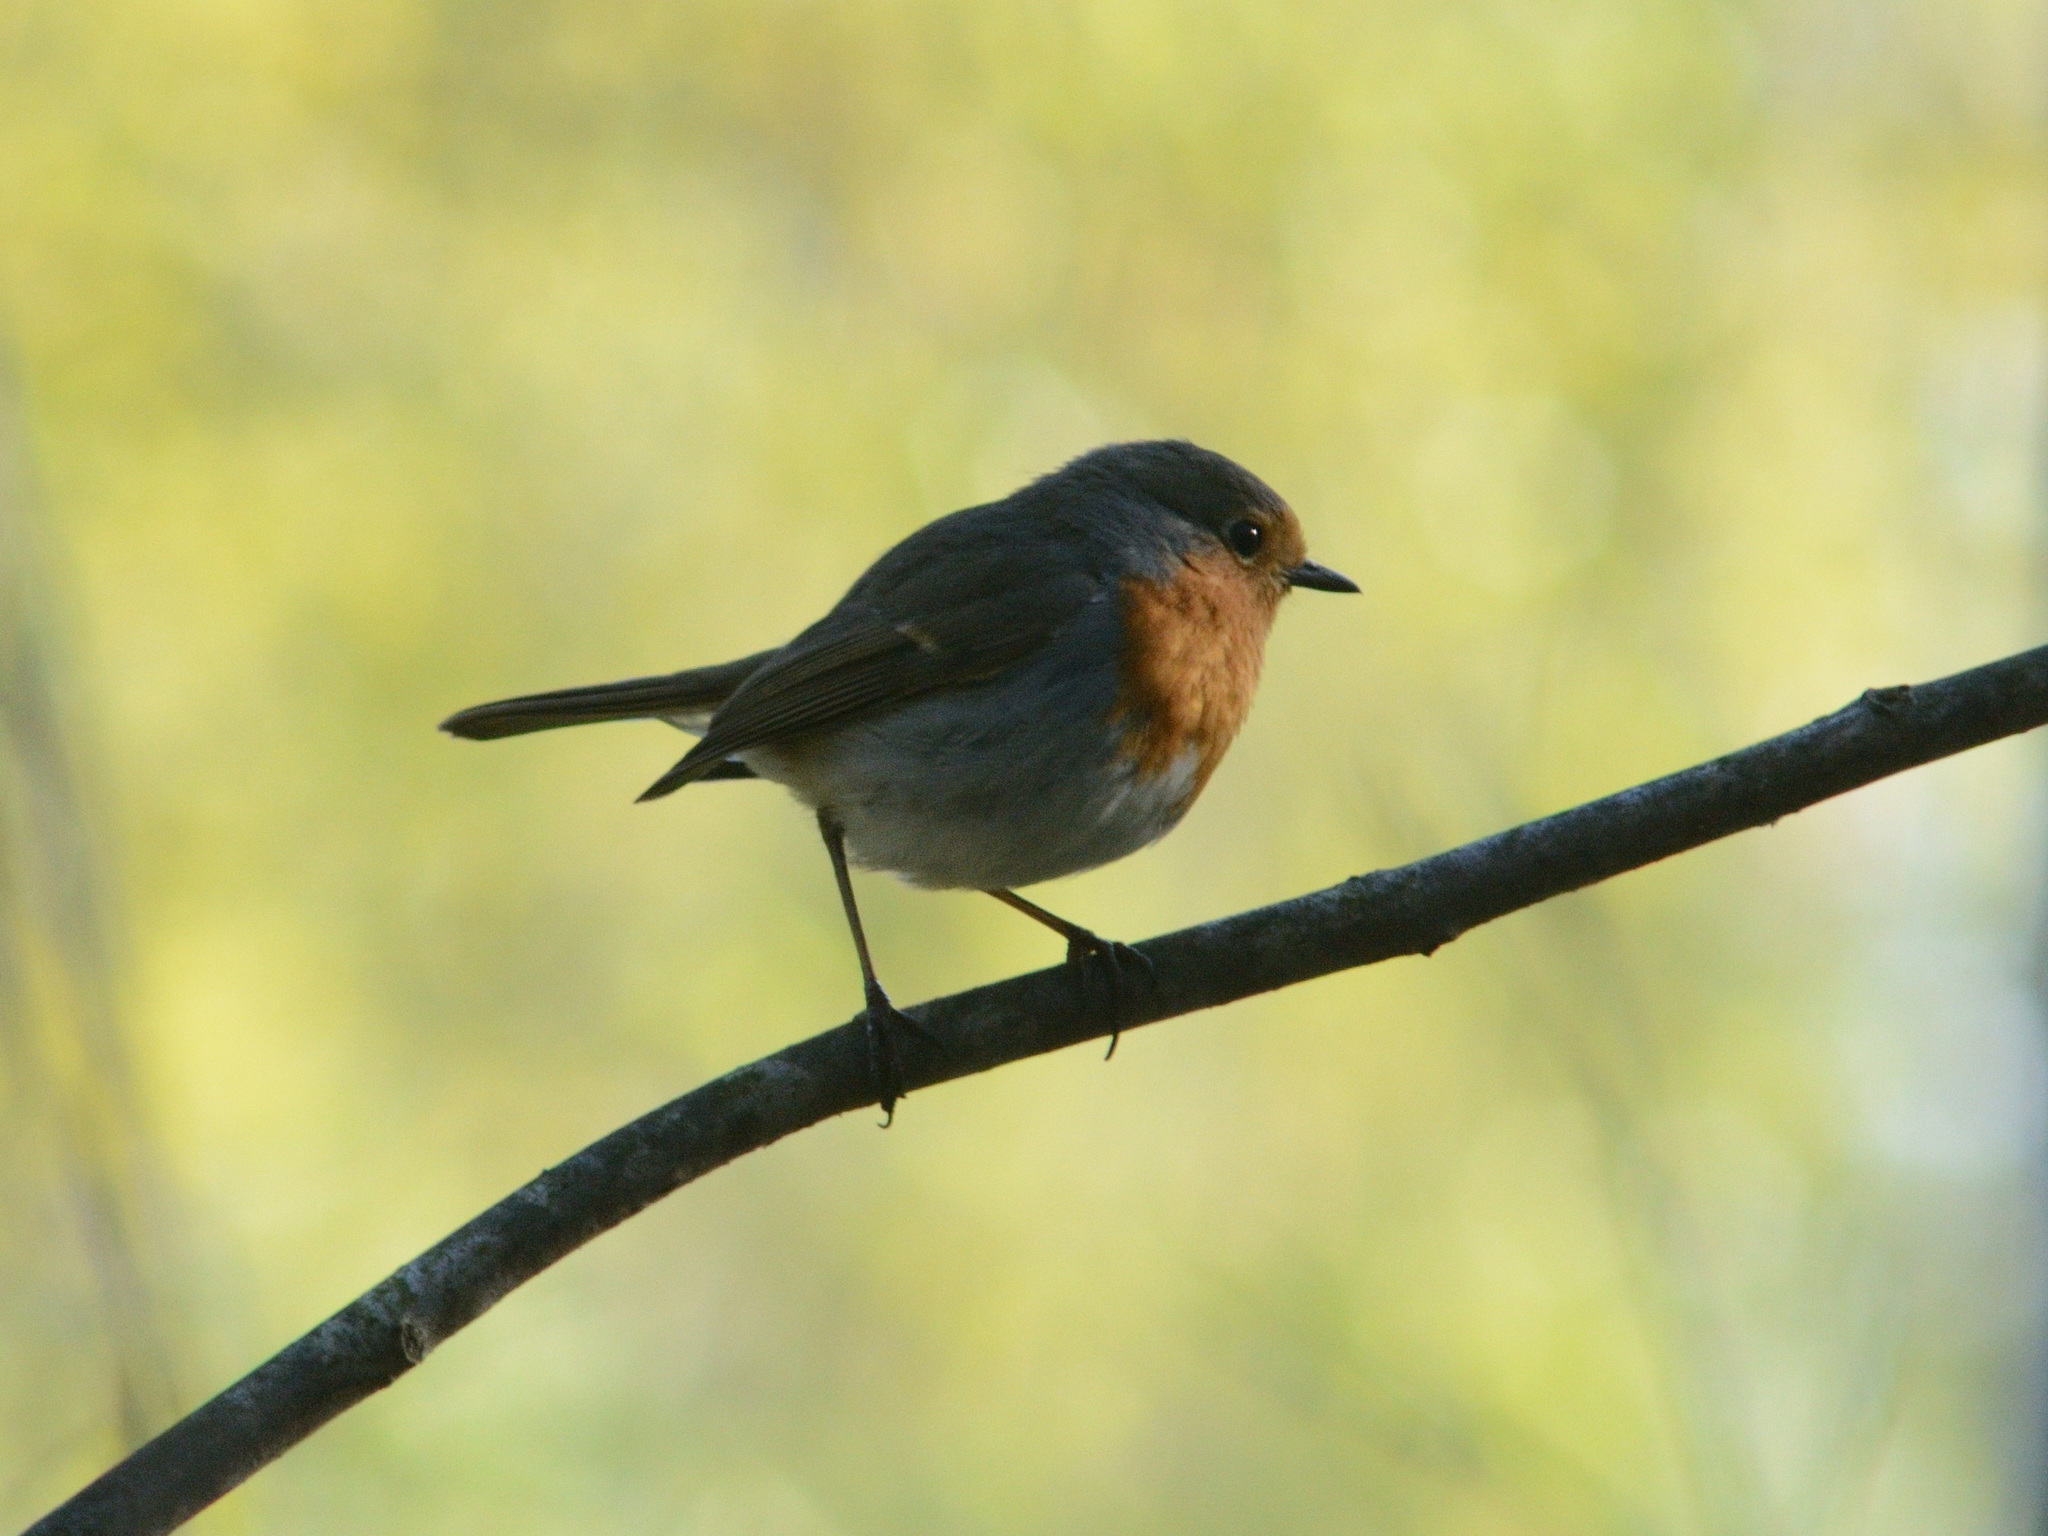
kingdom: Animalia
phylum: Chordata
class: Aves
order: Passeriformes
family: Muscicapidae
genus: Erithacus
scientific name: Erithacus rubecula
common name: European robin
